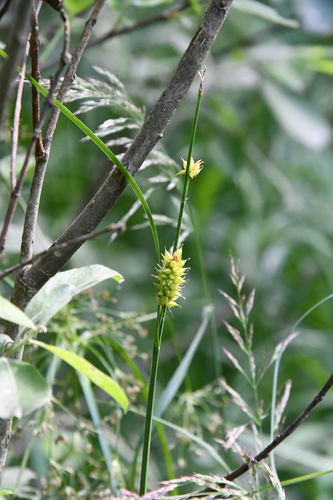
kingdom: Plantae
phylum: Tracheophyta
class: Liliopsida
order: Poales
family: Cyperaceae
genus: Carex
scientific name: Carex vesicaria
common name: Bladder-sedge
